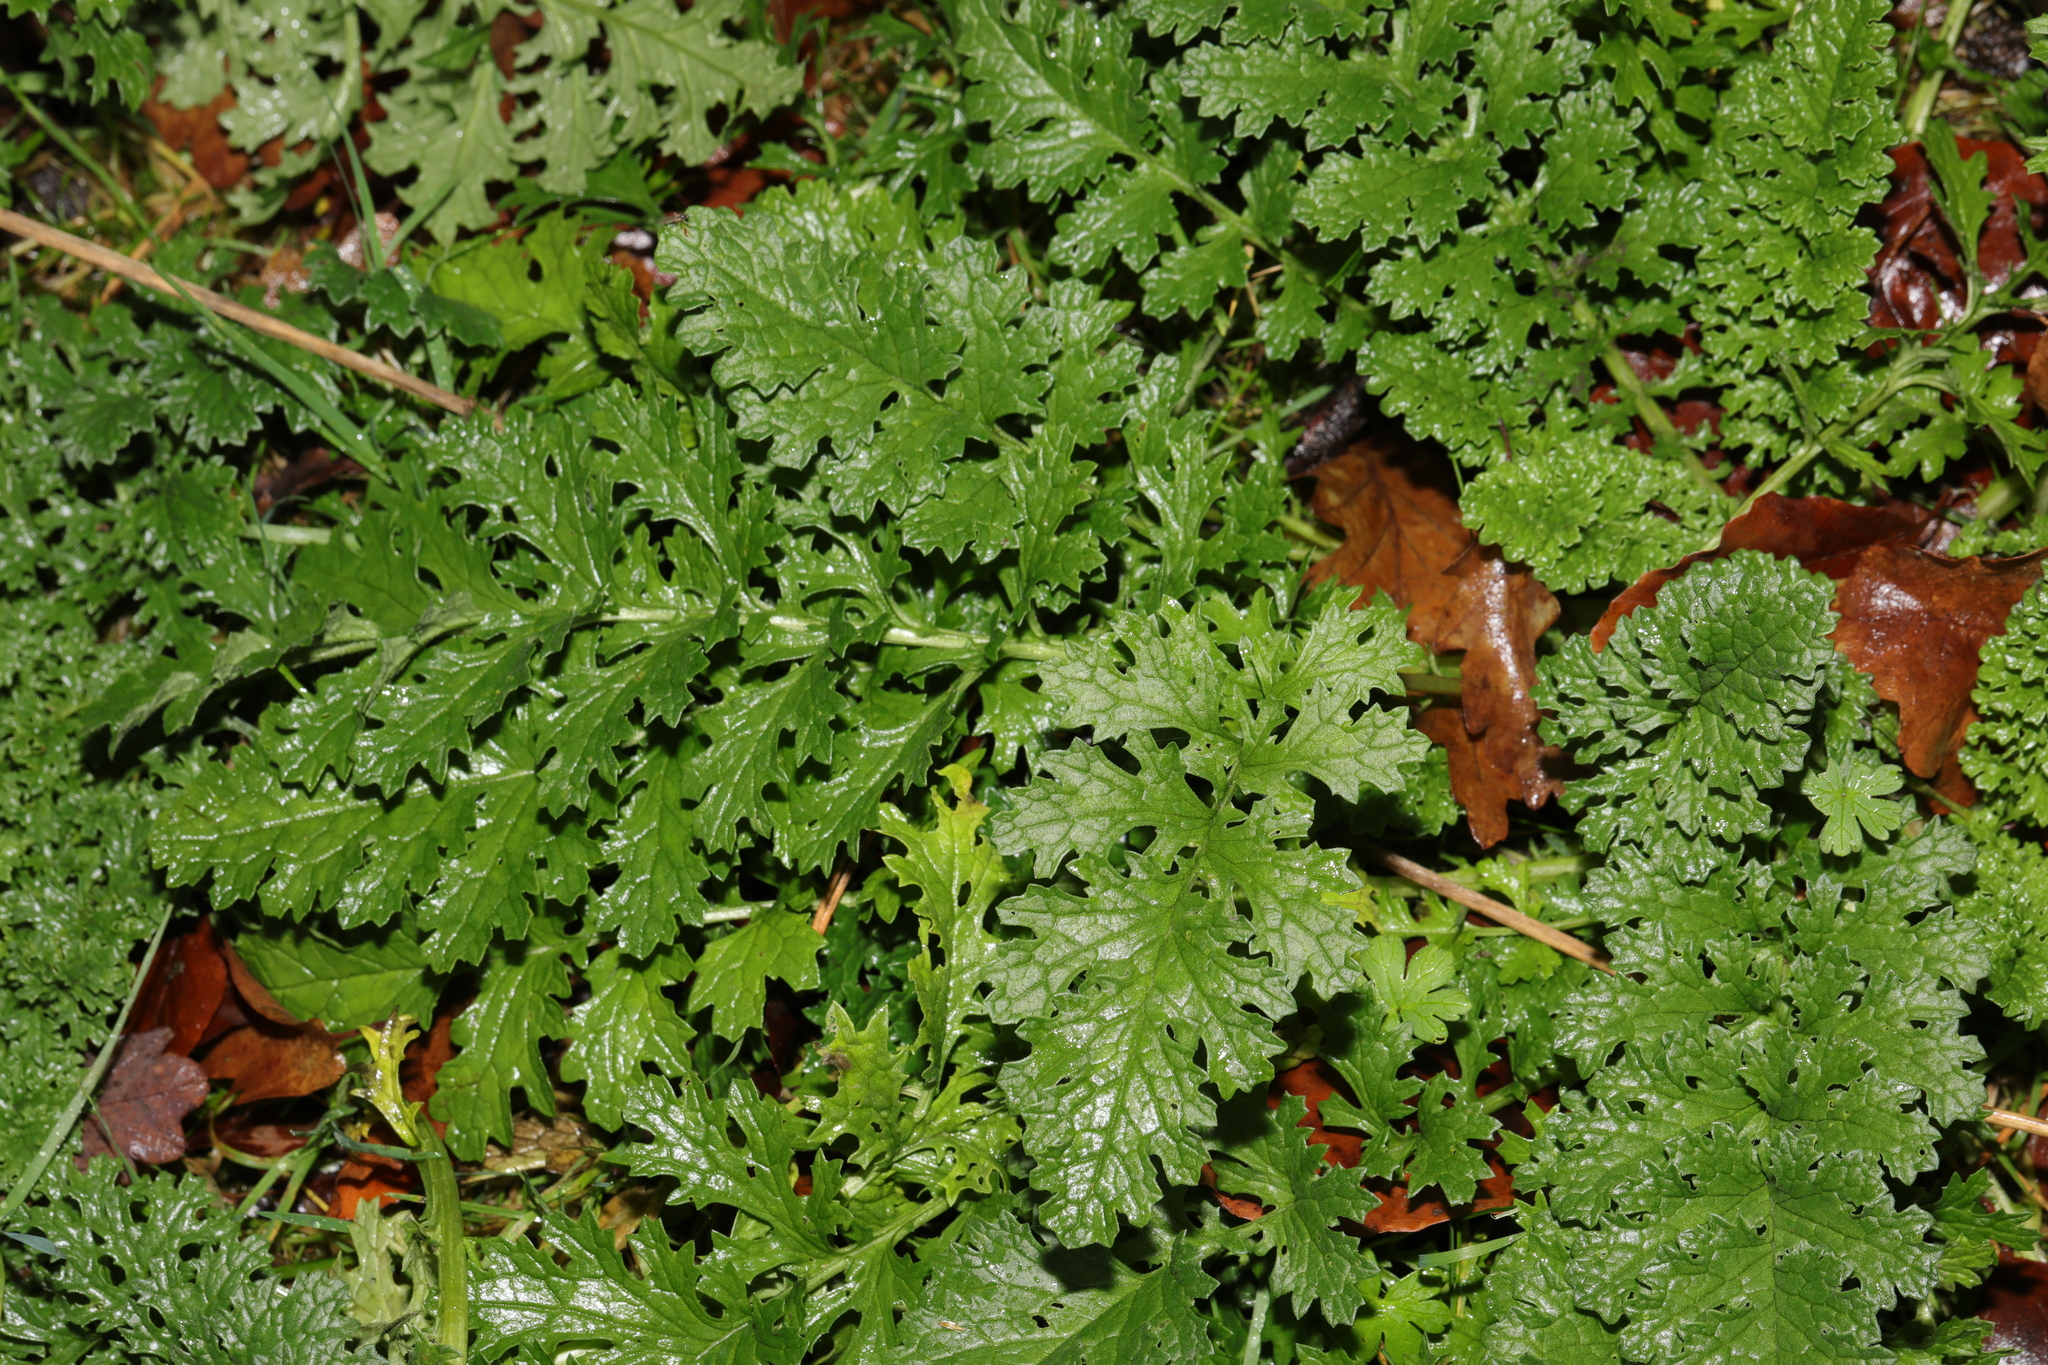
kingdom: Plantae
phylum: Tracheophyta
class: Magnoliopsida
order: Asterales
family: Asteraceae
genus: Jacobaea
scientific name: Jacobaea vulgaris
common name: Stinking willie
